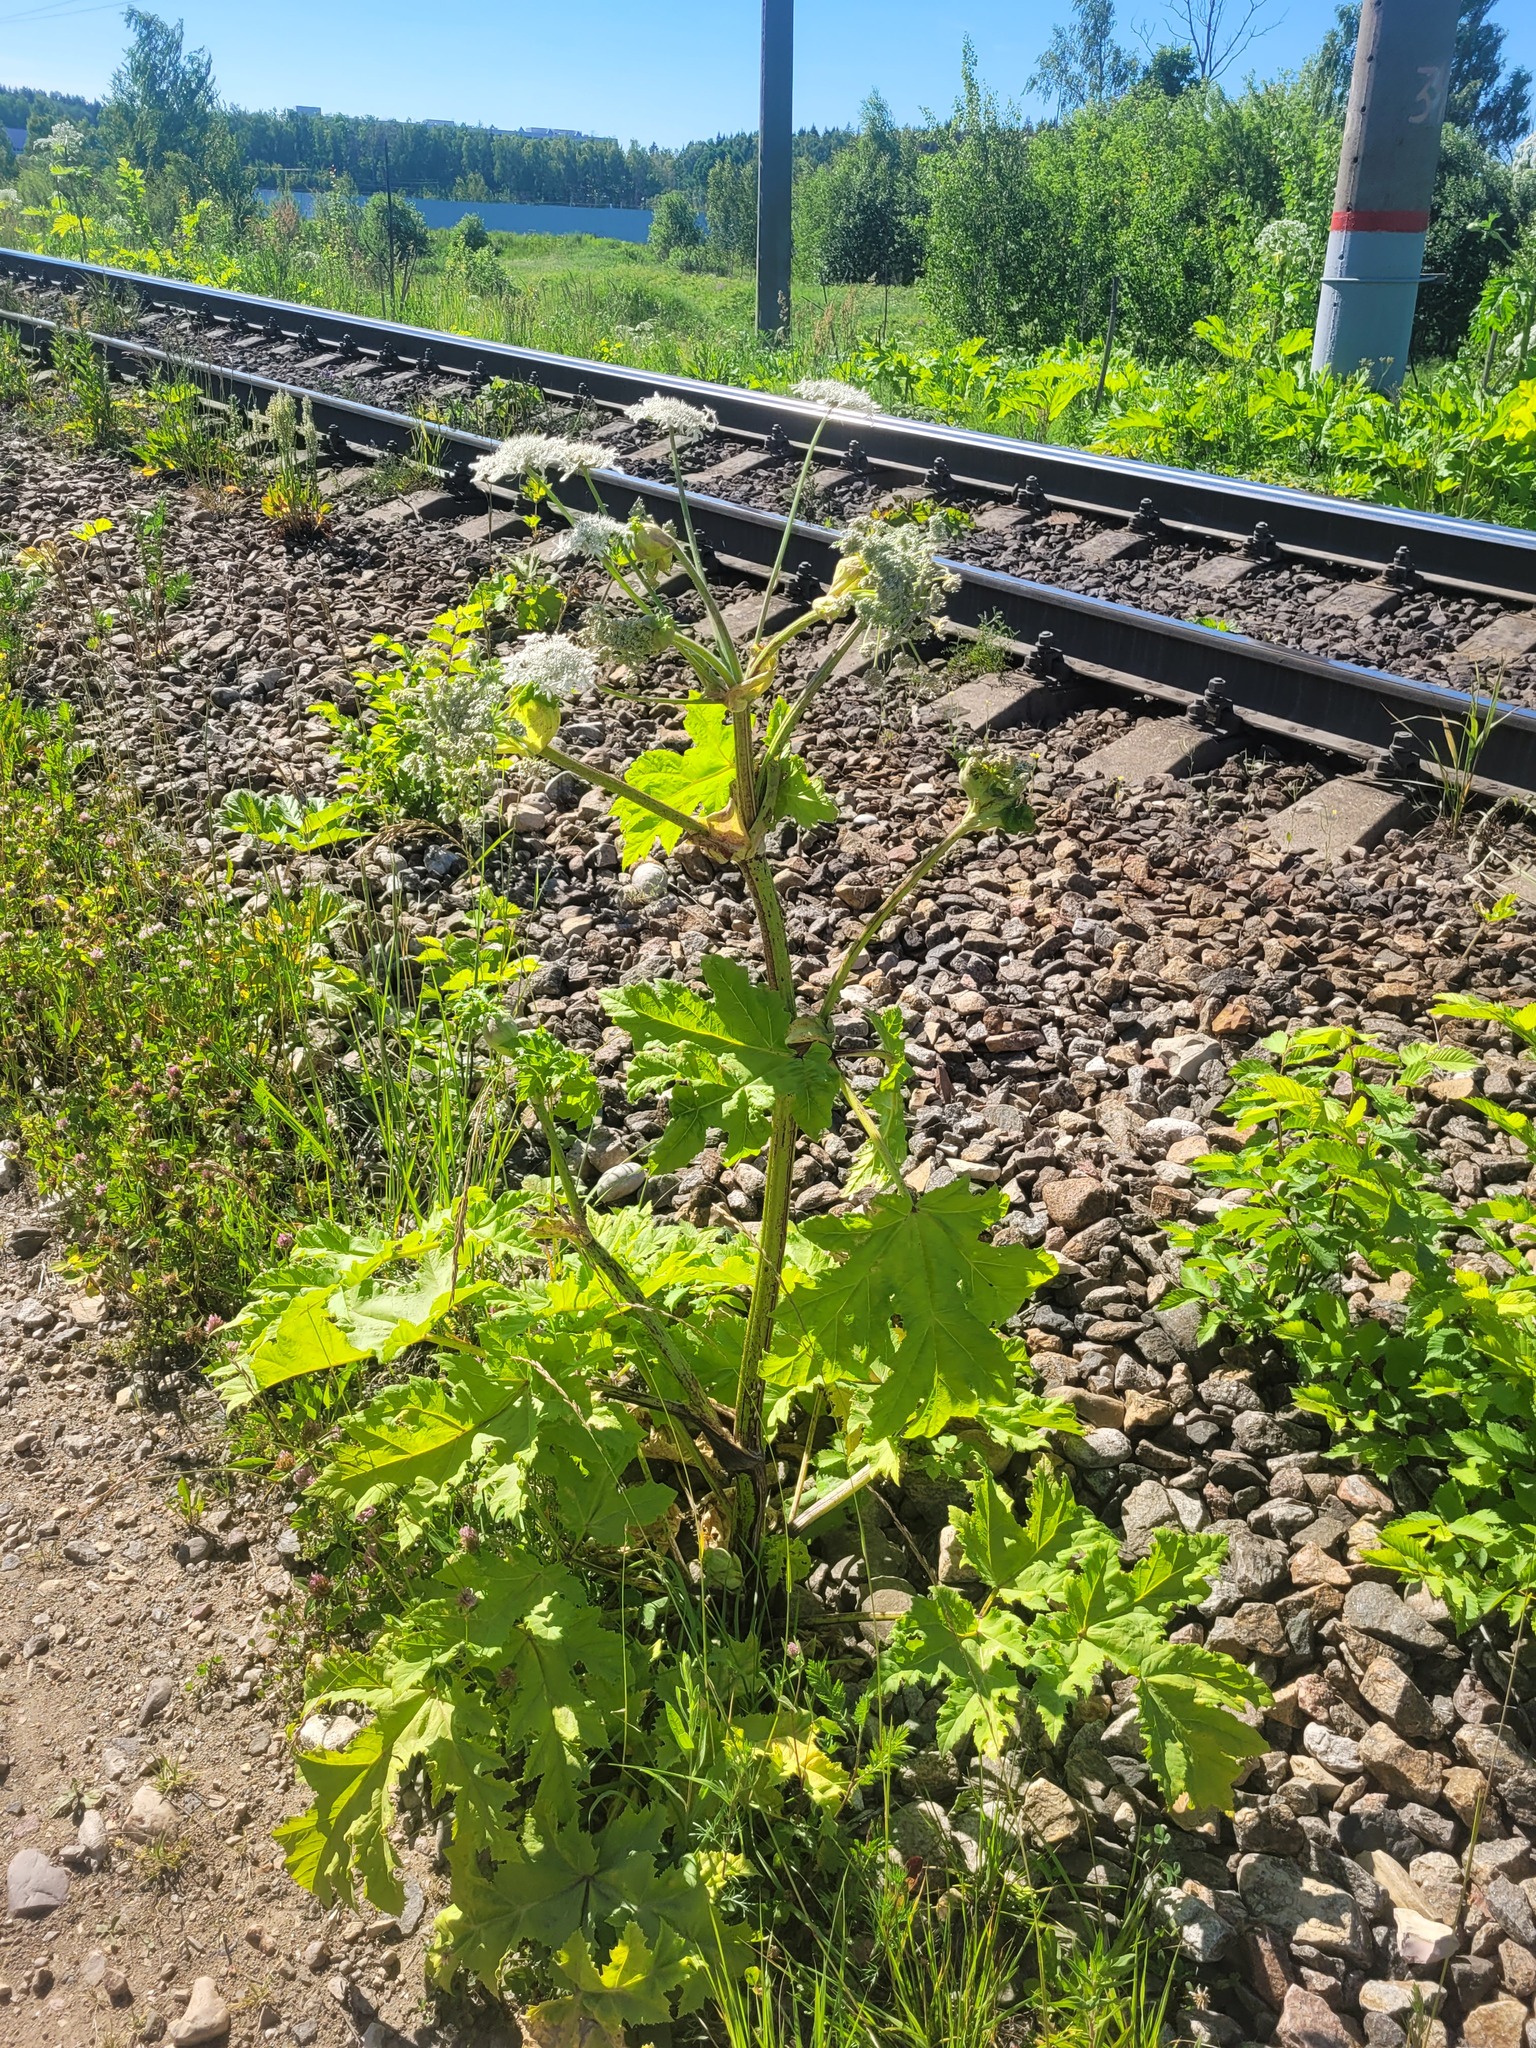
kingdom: Plantae
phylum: Tracheophyta
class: Magnoliopsida
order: Apiales
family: Apiaceae
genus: Heracleum
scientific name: Heracleum sosnowskyi
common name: Sosnowsky's hogweed
